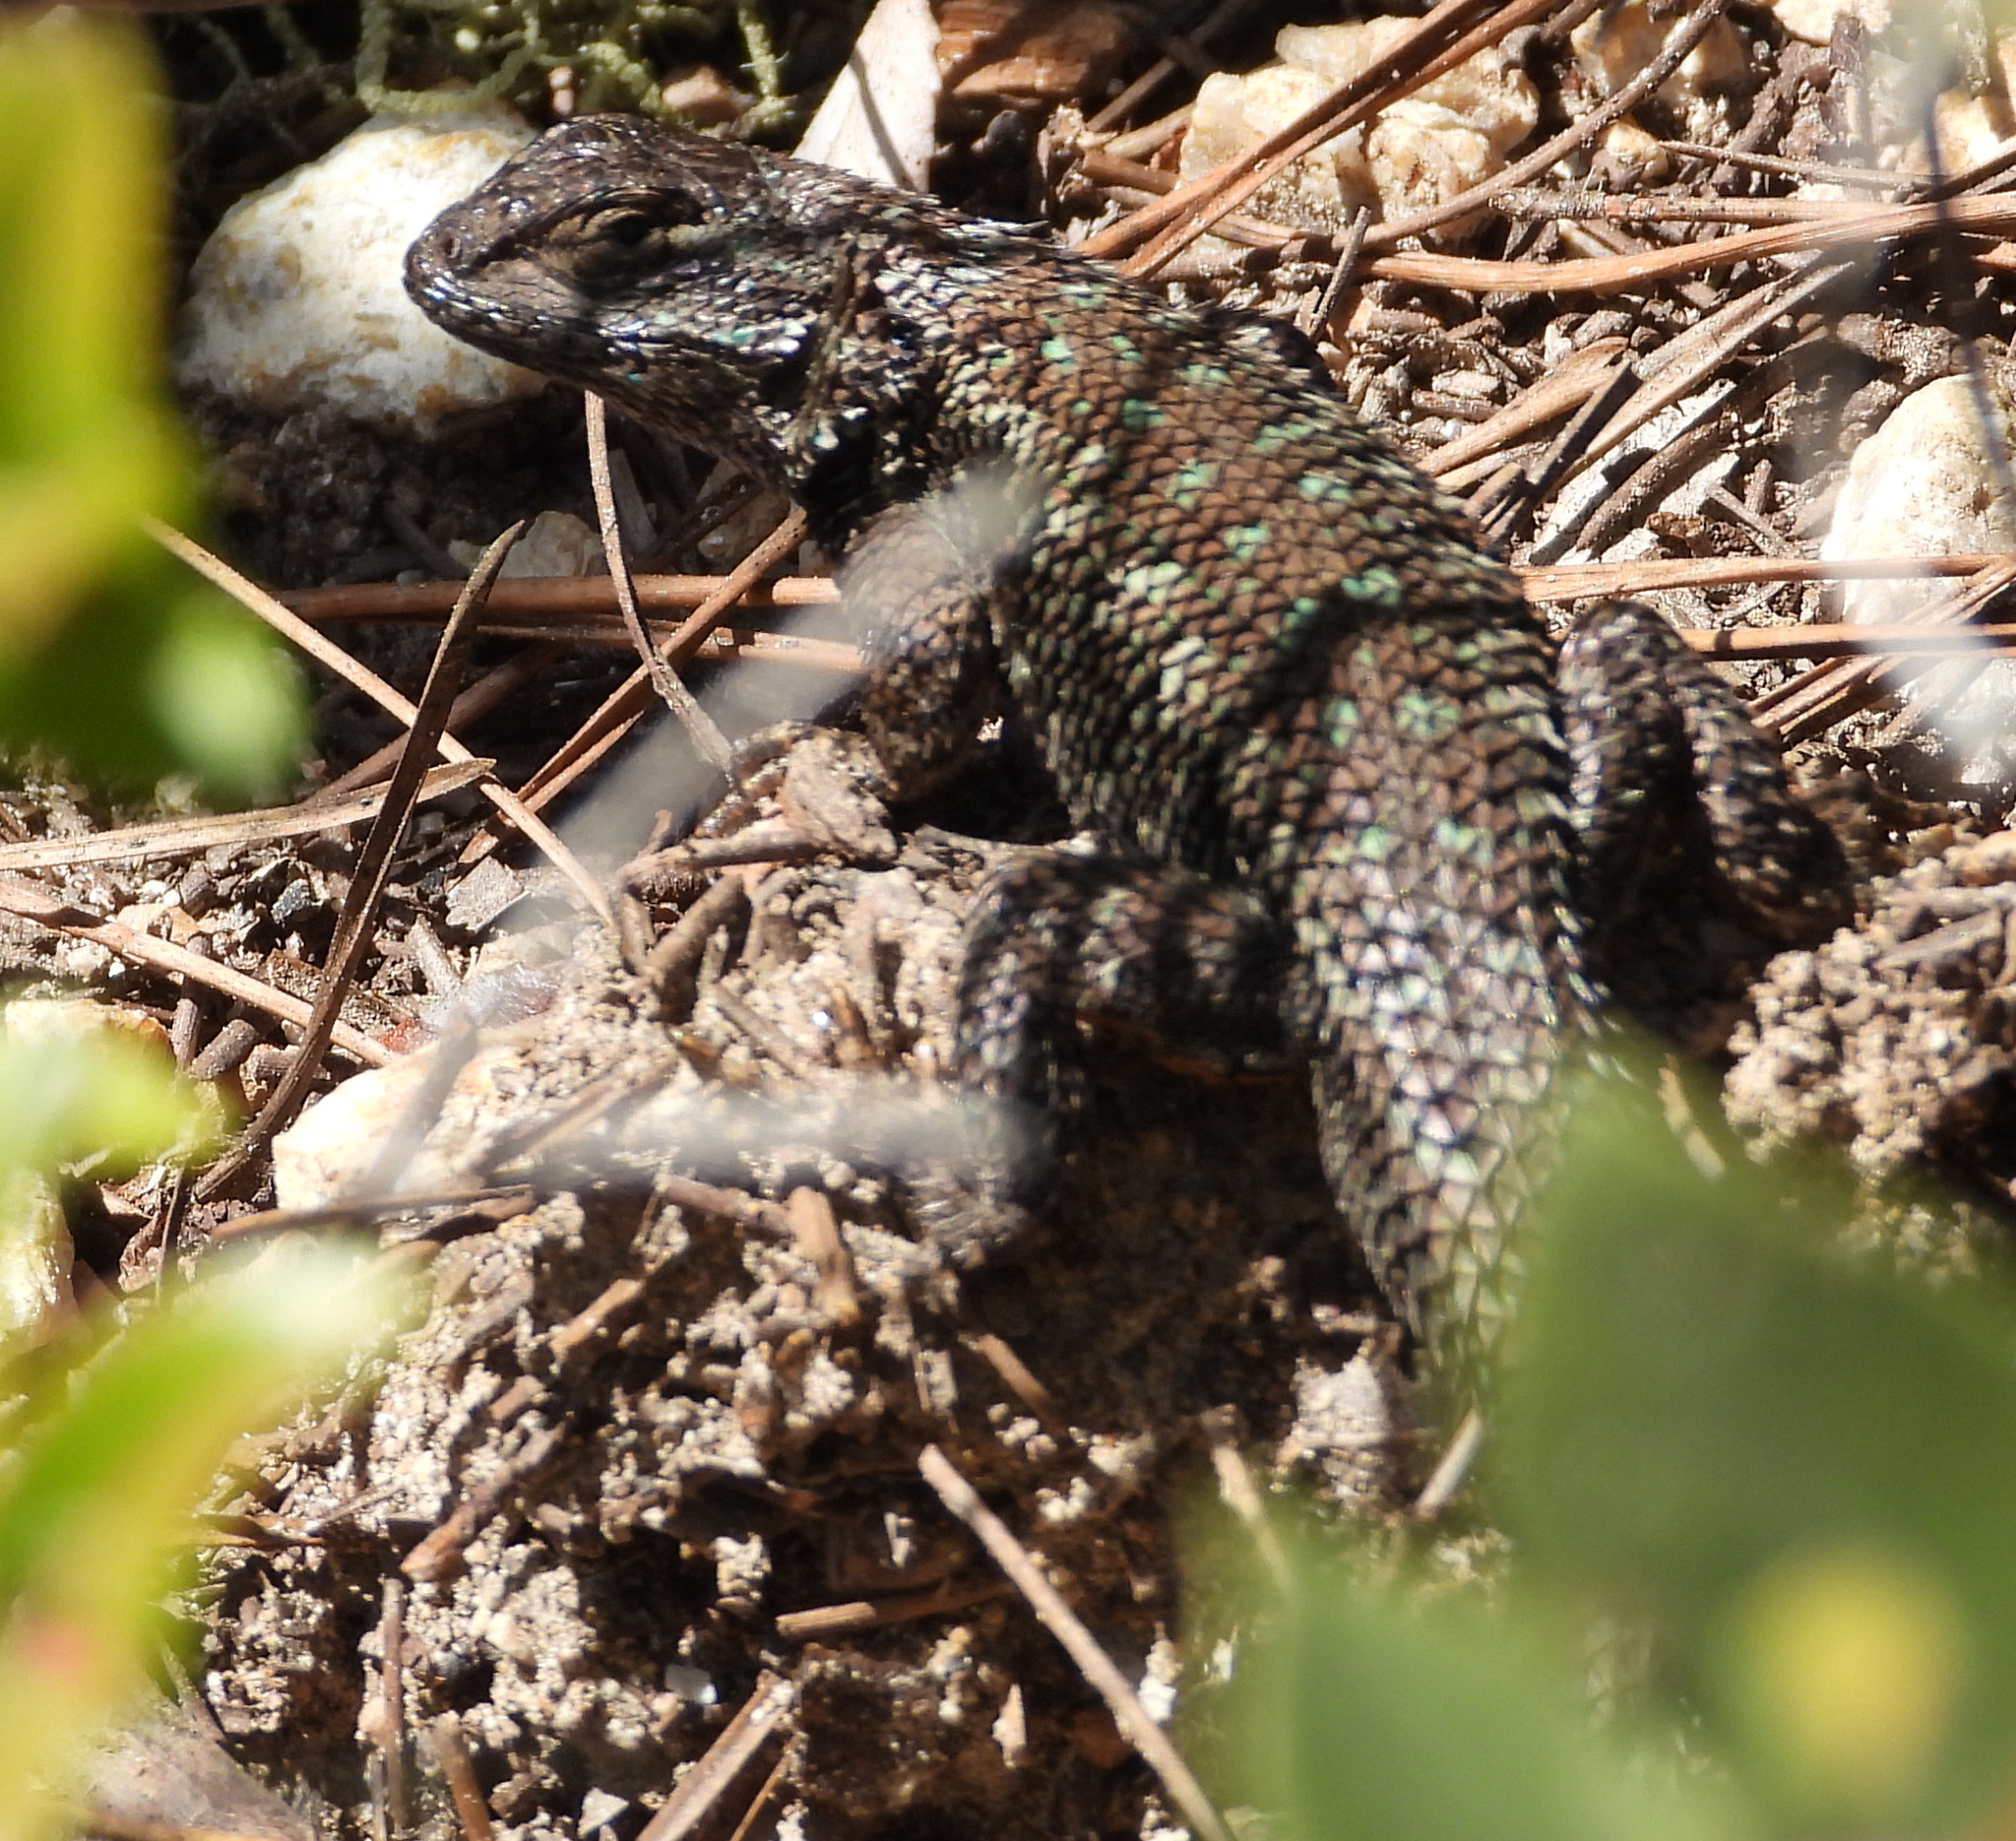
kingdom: Animalia
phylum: Chordata
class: Squamata
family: Phrynosomatidae
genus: Sceloporus
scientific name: Sceloporus occidentalis
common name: Western fence lizard
